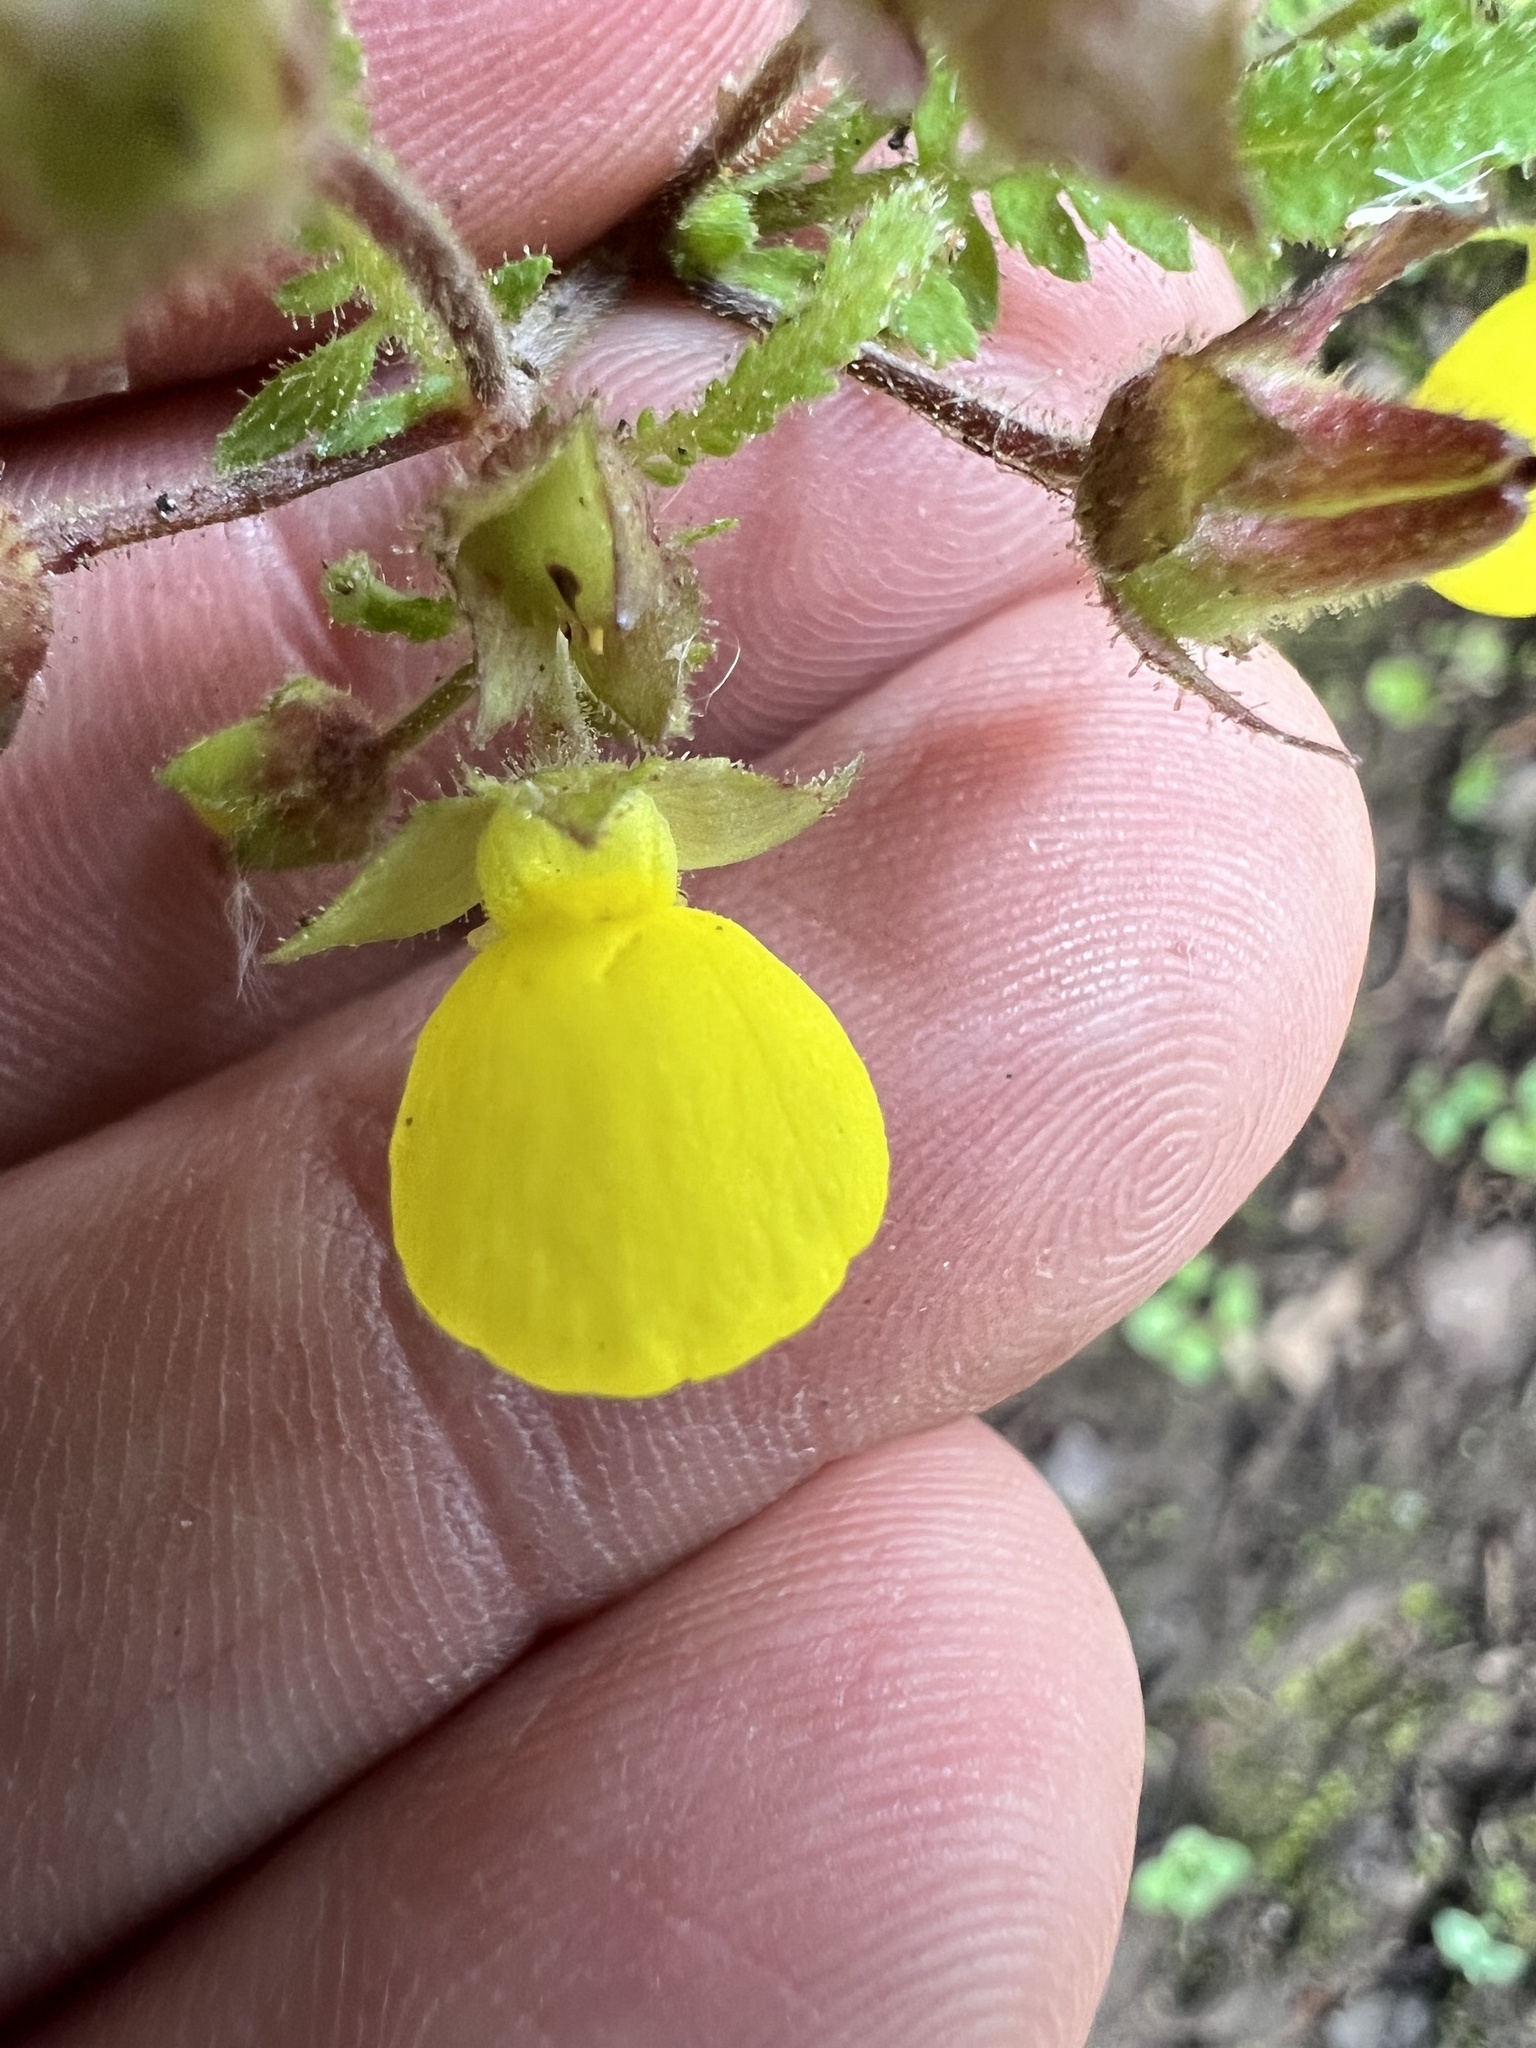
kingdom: Plantae
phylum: Tracheophyta
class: Magnoliopsida
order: Lamiales
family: Calceolariaceae
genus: Calceolaria
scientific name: Calceolaria tripartita
